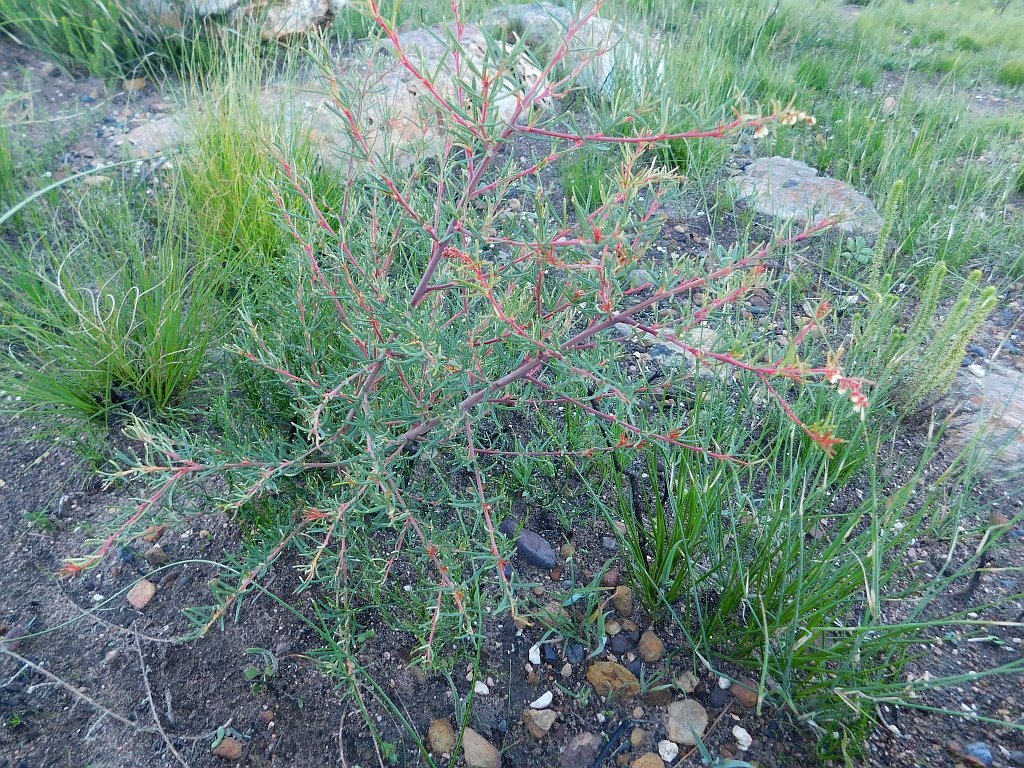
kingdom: Plantae
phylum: Tracheophyta
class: Magnoliopsida
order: Sapindales
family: Anacardiaceae
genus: Searsia
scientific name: Searsia rosmarinifolia
